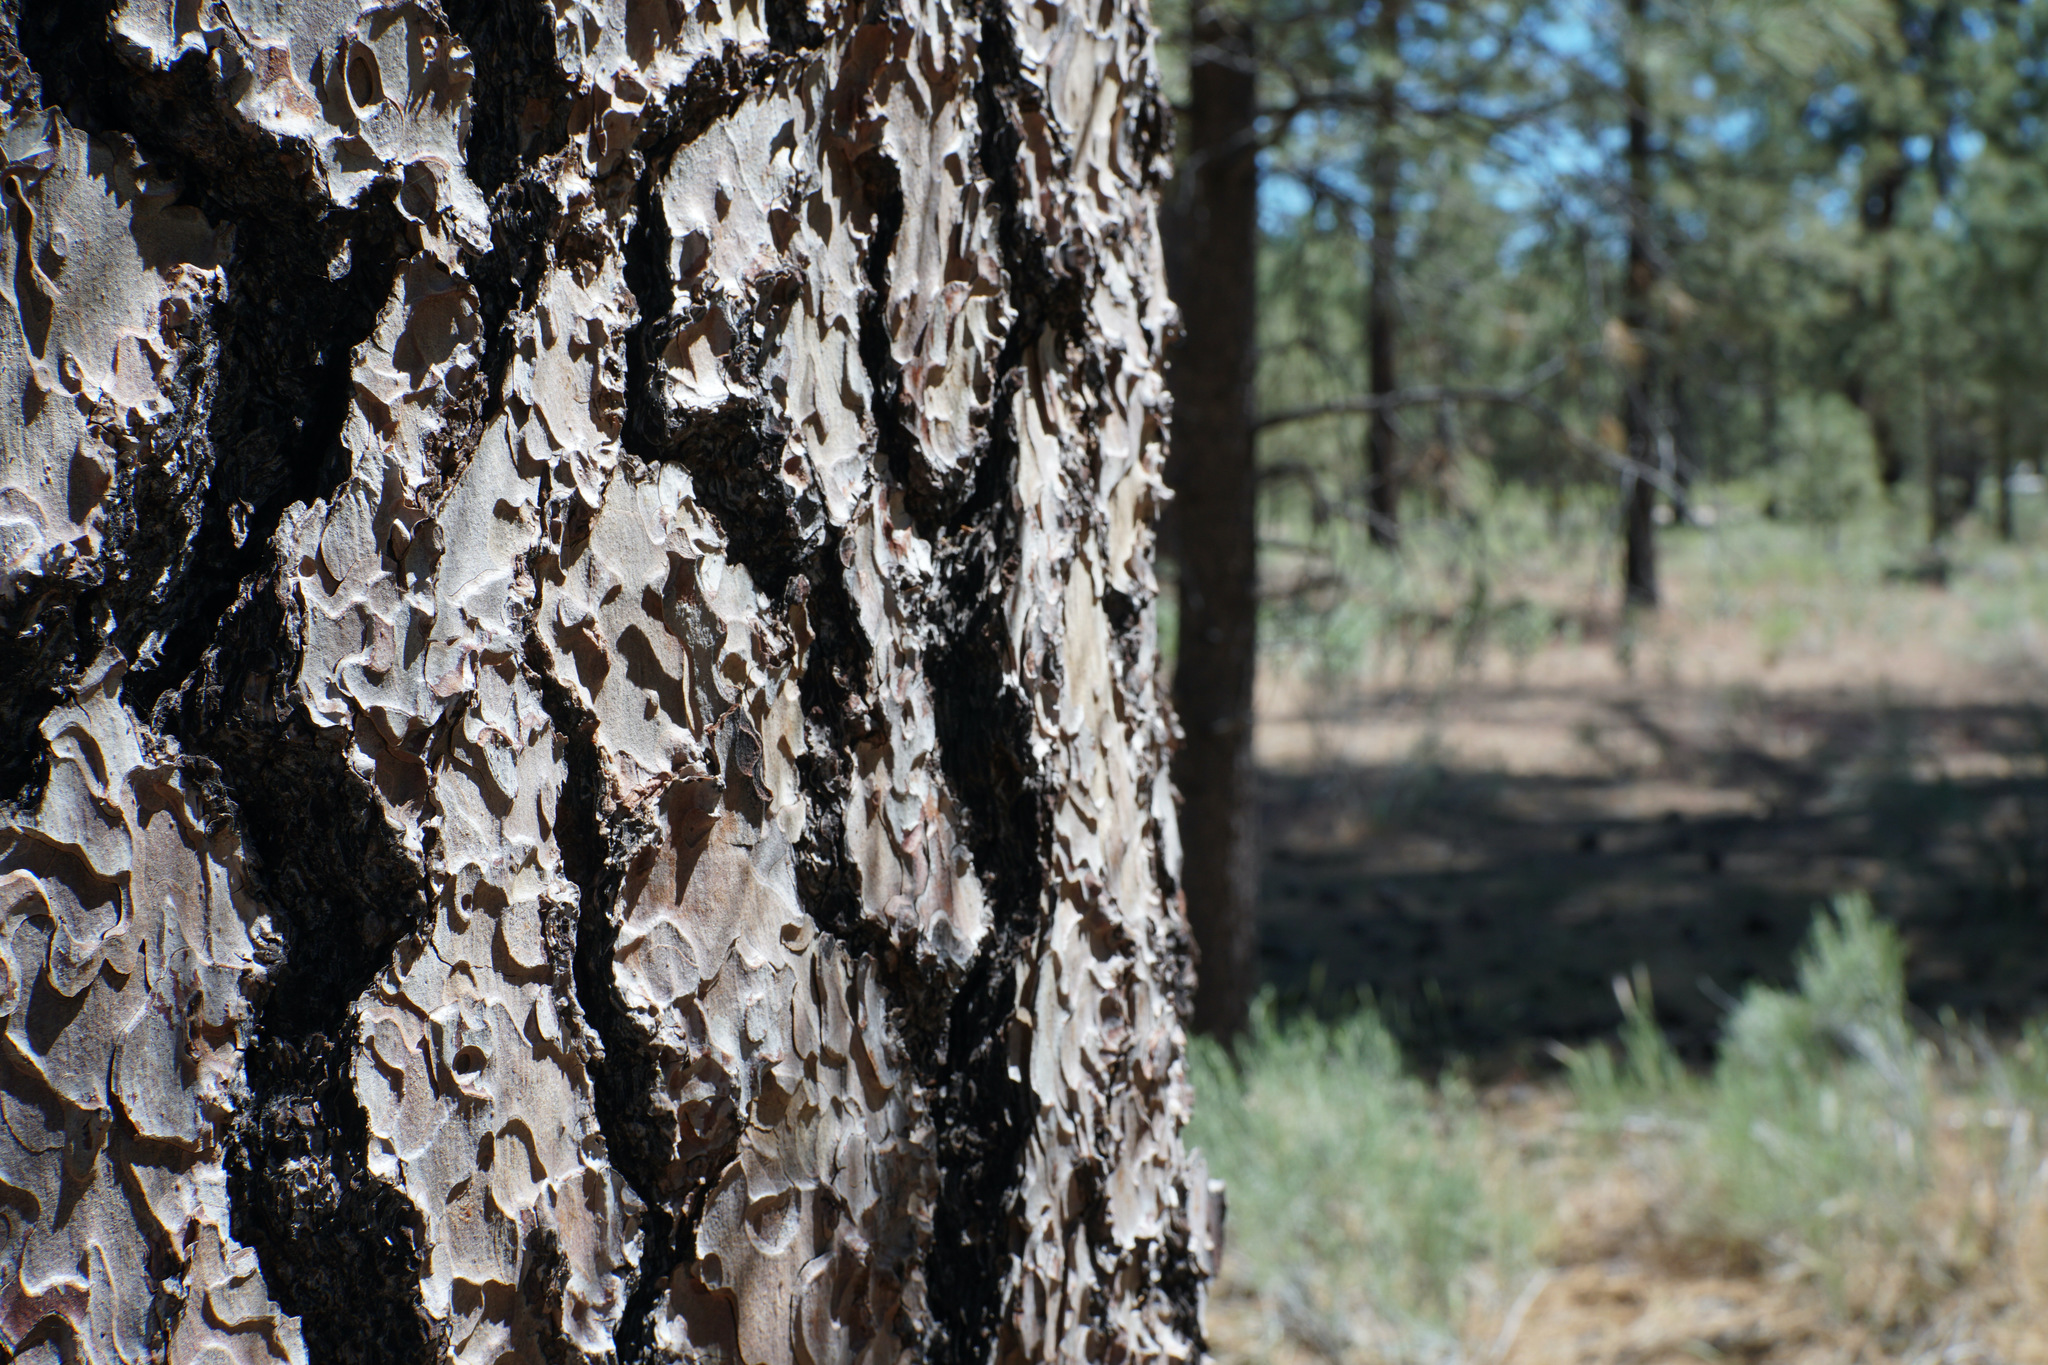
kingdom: Plantae
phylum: Tracheophyta
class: Pinopsida
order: Pinales
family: Pinaceae
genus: Pinus
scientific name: Pinus jeffreyi
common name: Jeffrey pine
